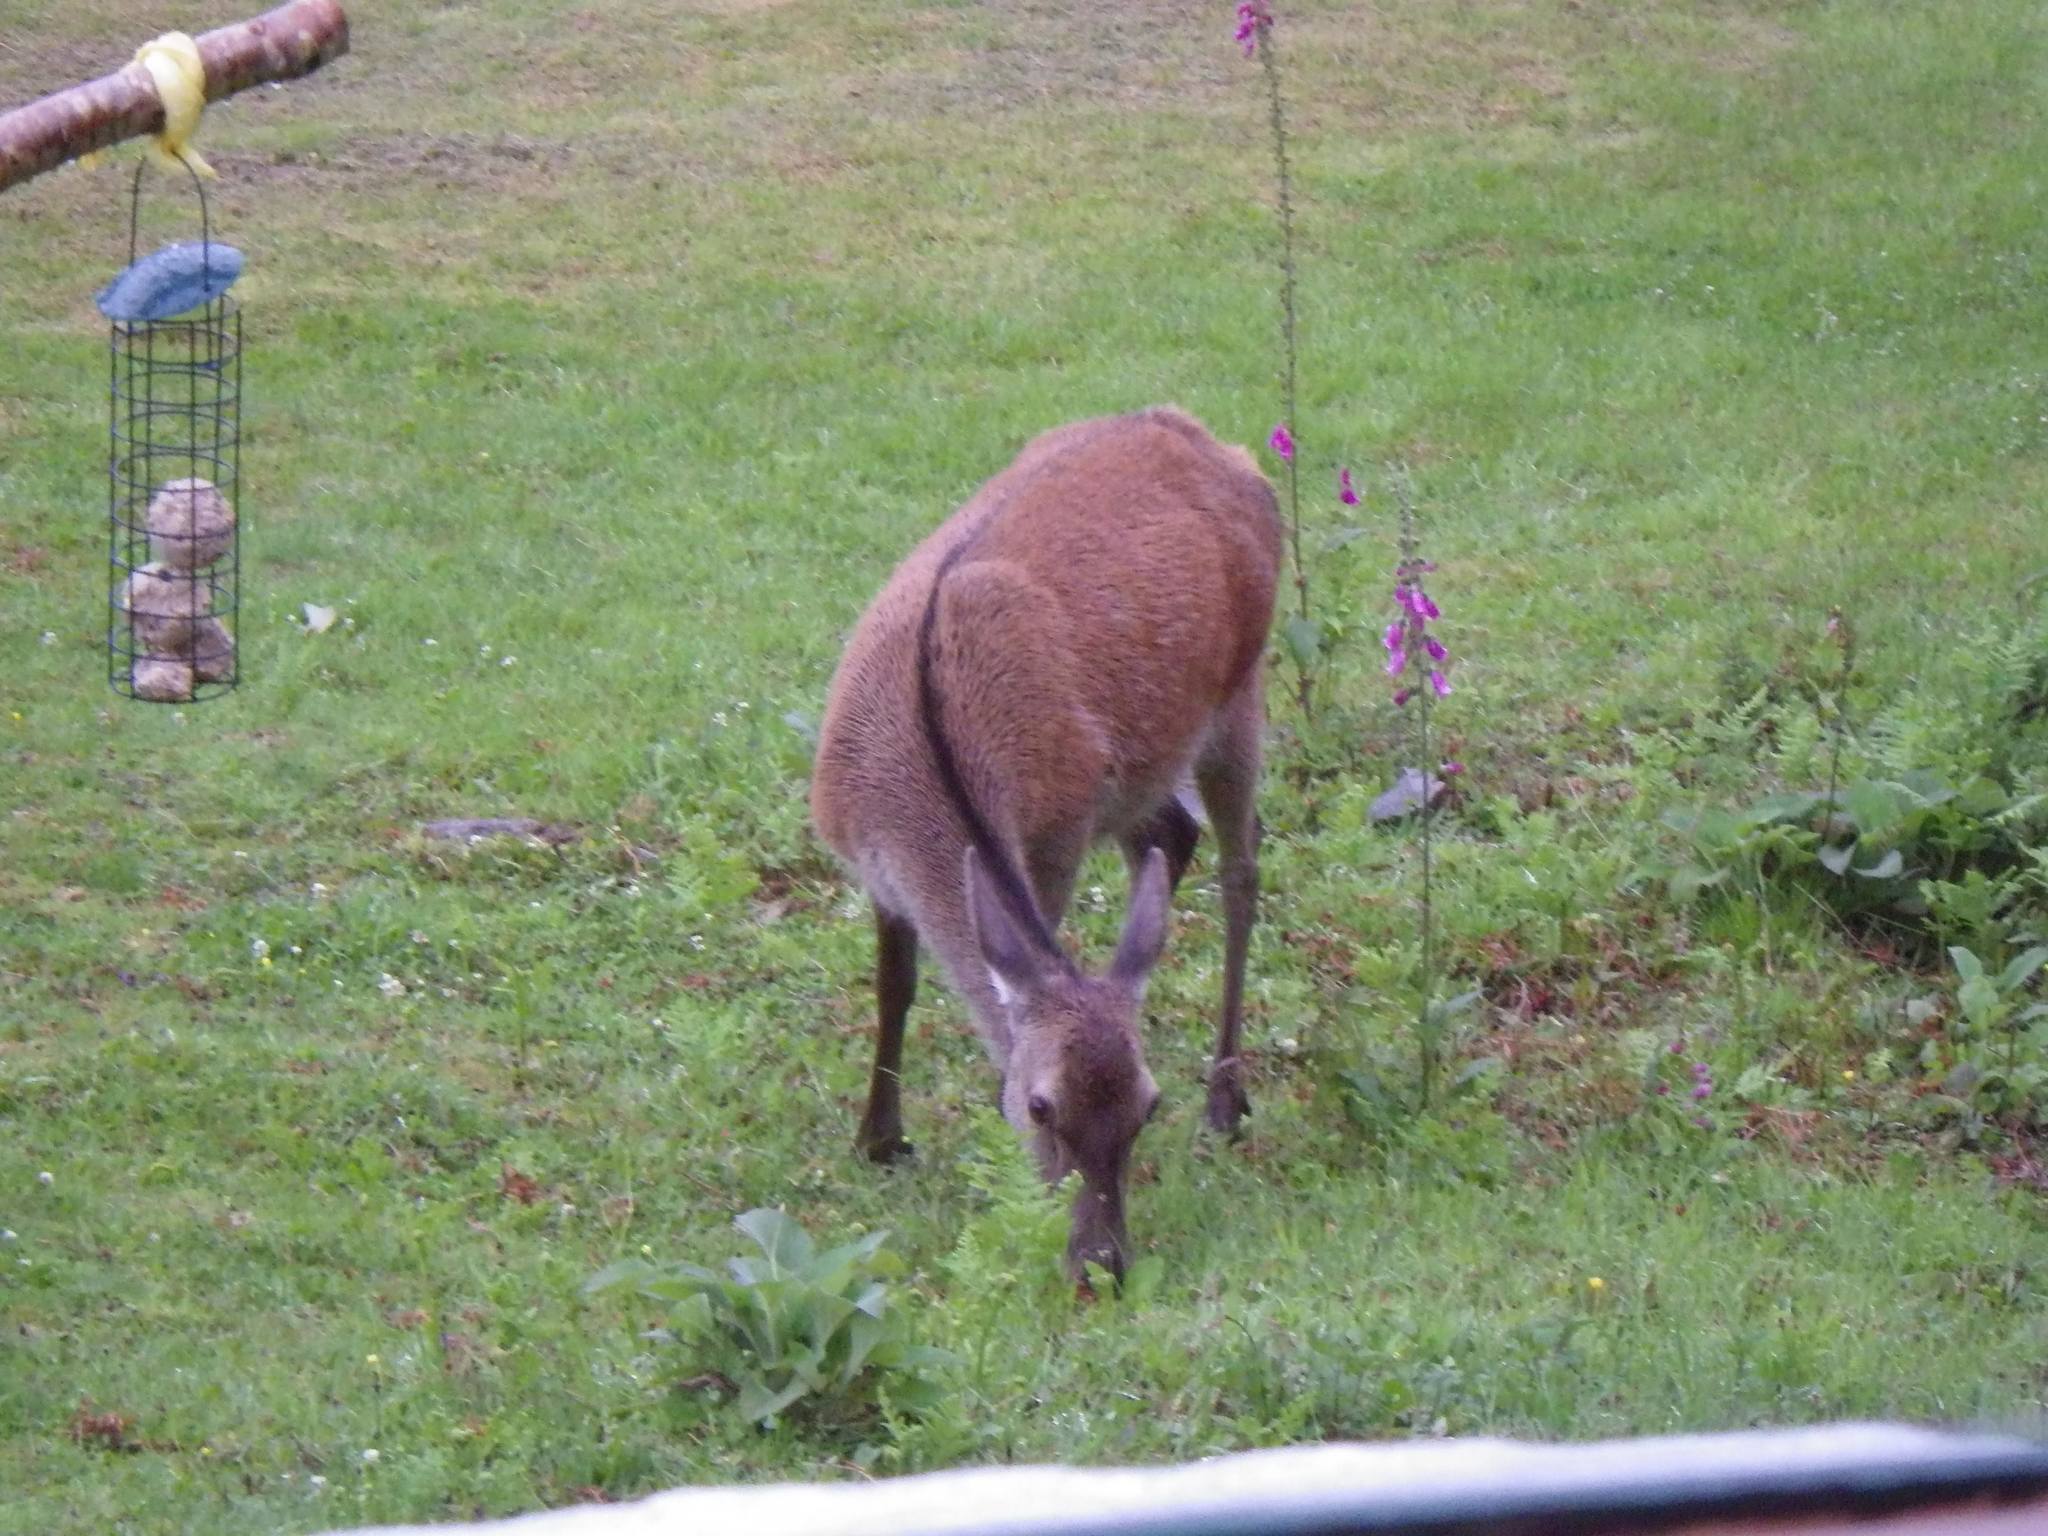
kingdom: Animalia
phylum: Chordata
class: Mammalia
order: Artiodactyla
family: Cervidae
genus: Cervus
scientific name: Cervus elaphus
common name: Red deer
